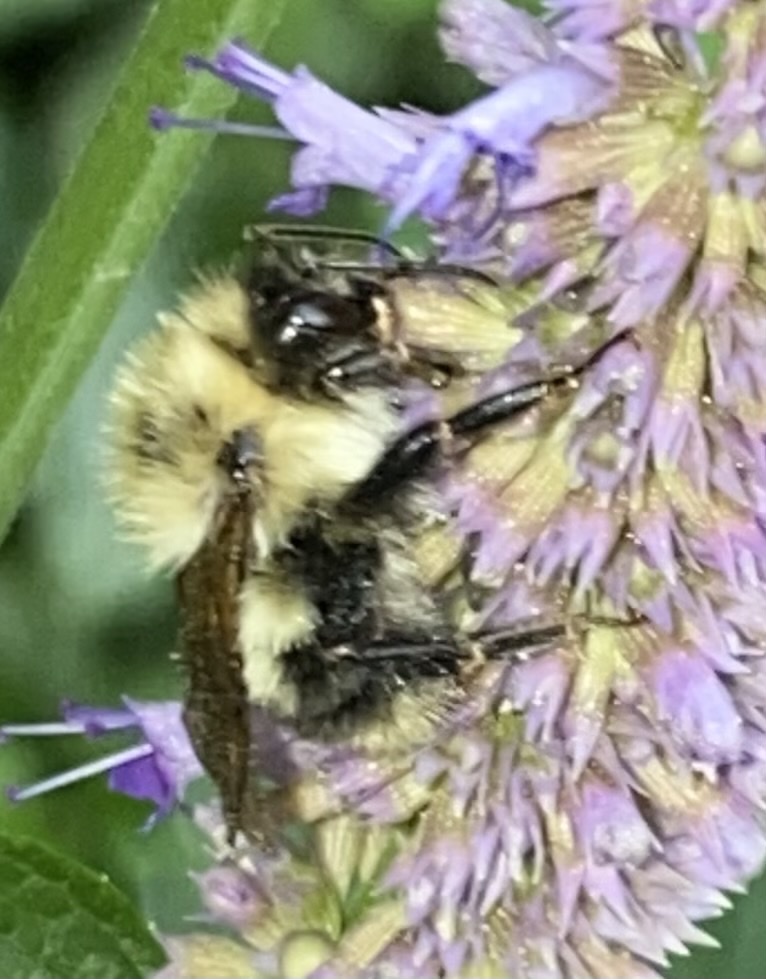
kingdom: Animalia
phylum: Arthropoda
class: Insecta
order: Hymenoptera
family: Apidae
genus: Bombus
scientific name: Bombus bimaculatus
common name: Two-spotted bumble bee
